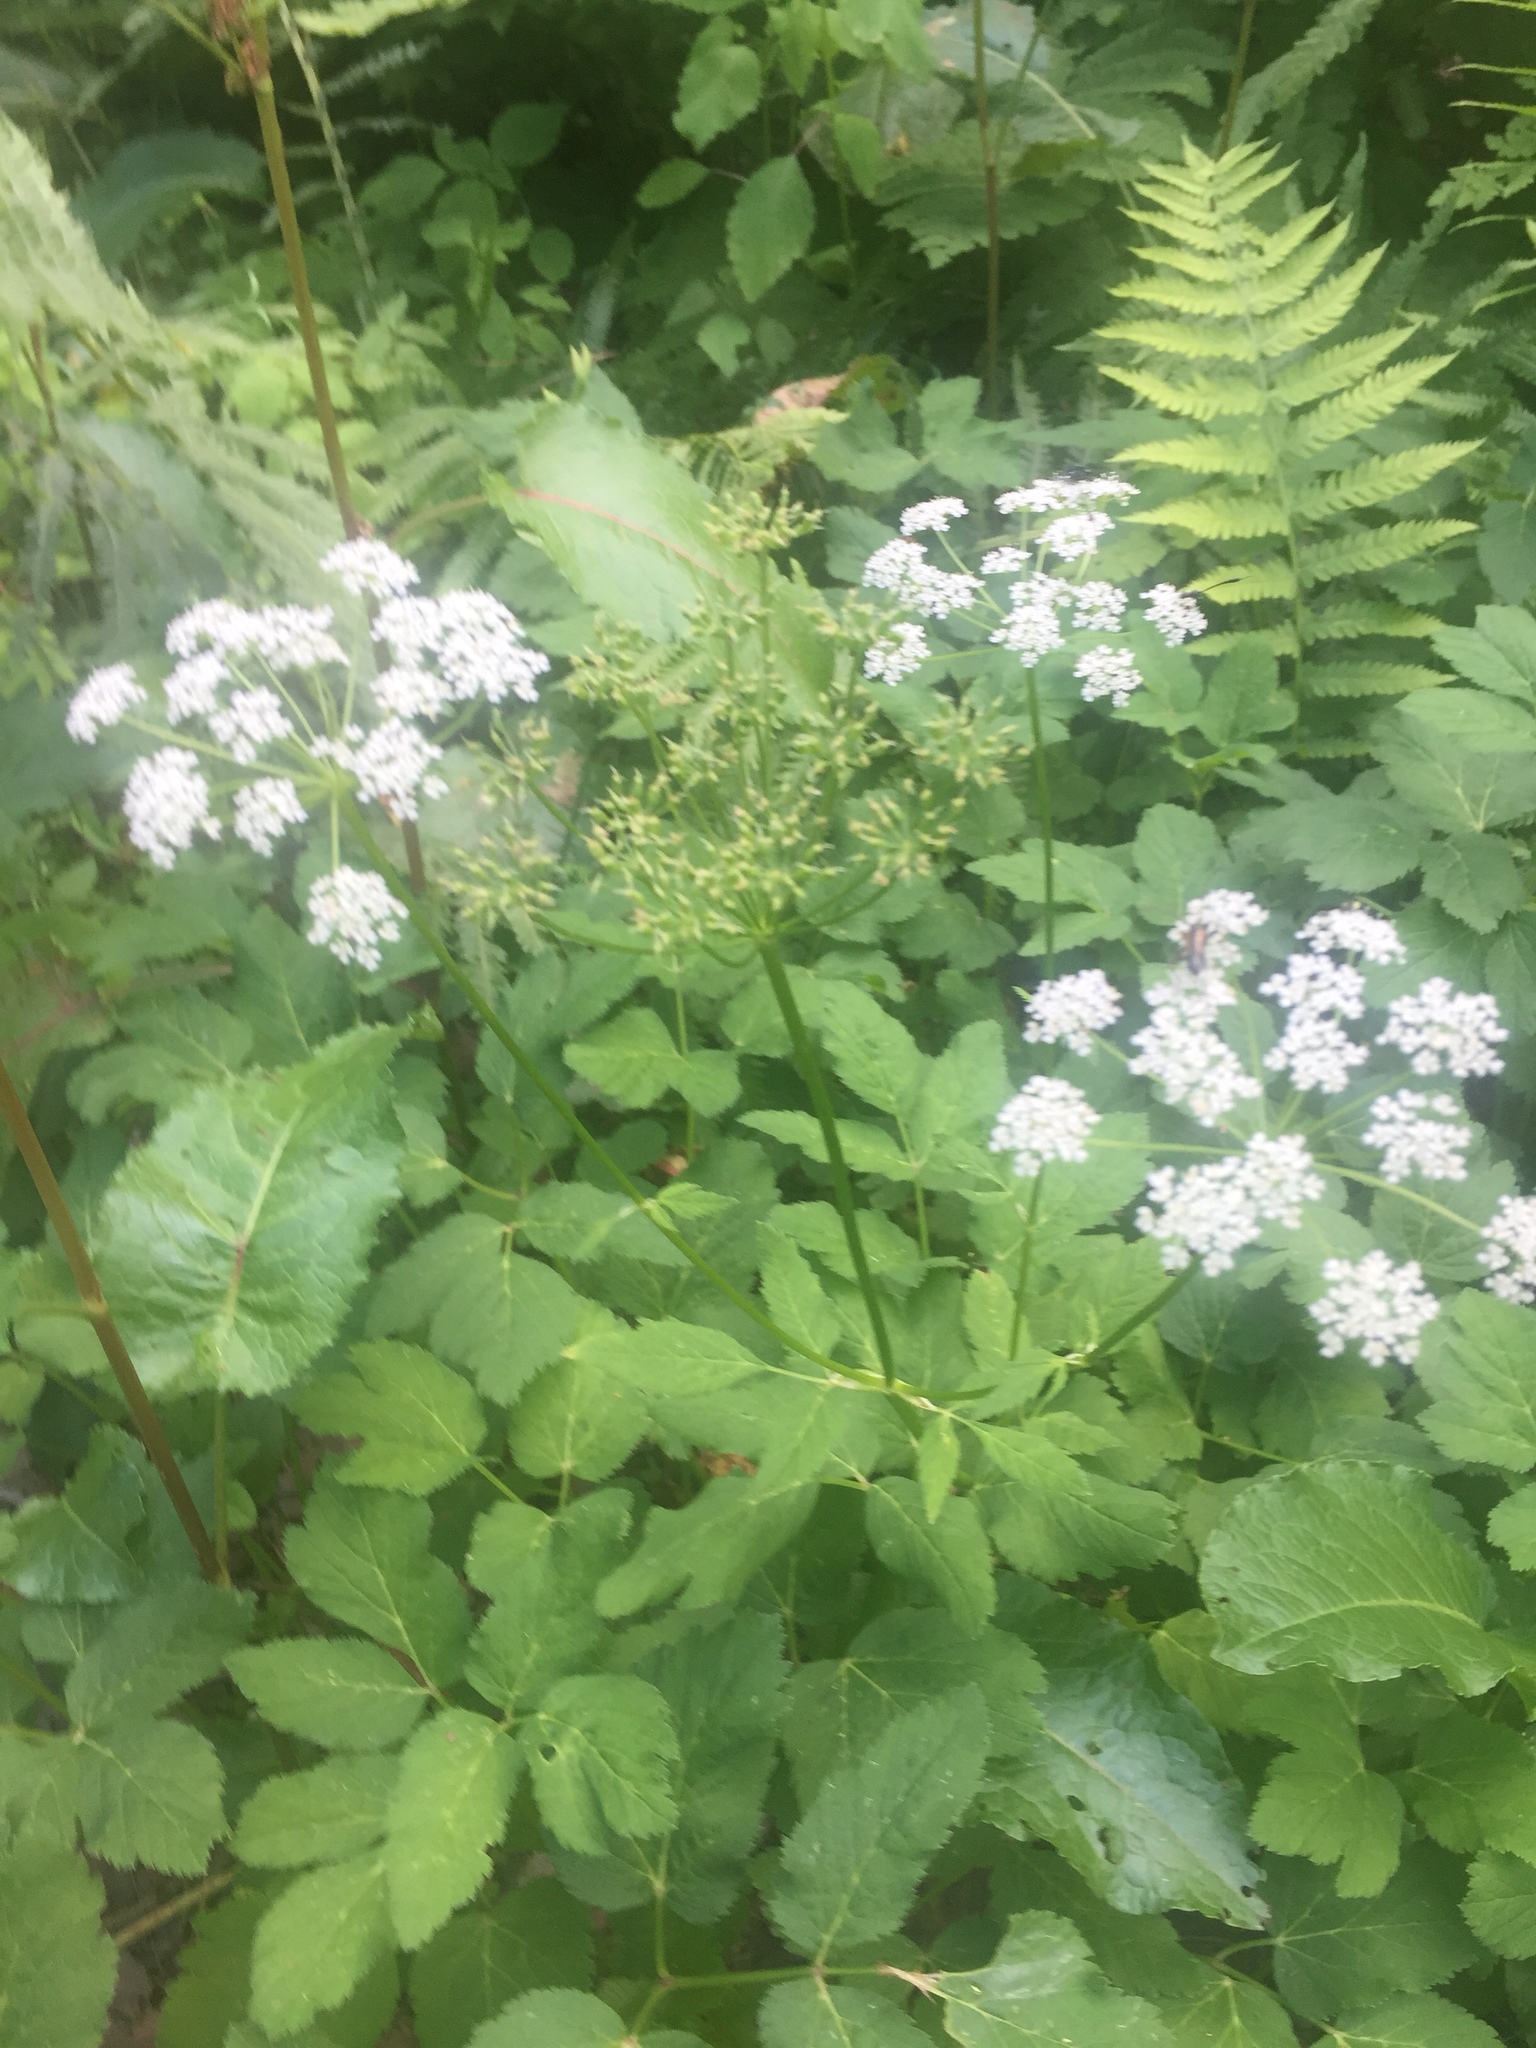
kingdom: Plantae
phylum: Tracheophyta
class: Magnoliopsida
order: Apiales
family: Apiaceae
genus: Aegopodium
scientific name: Aegopodium podagraria
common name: Ground-elder
